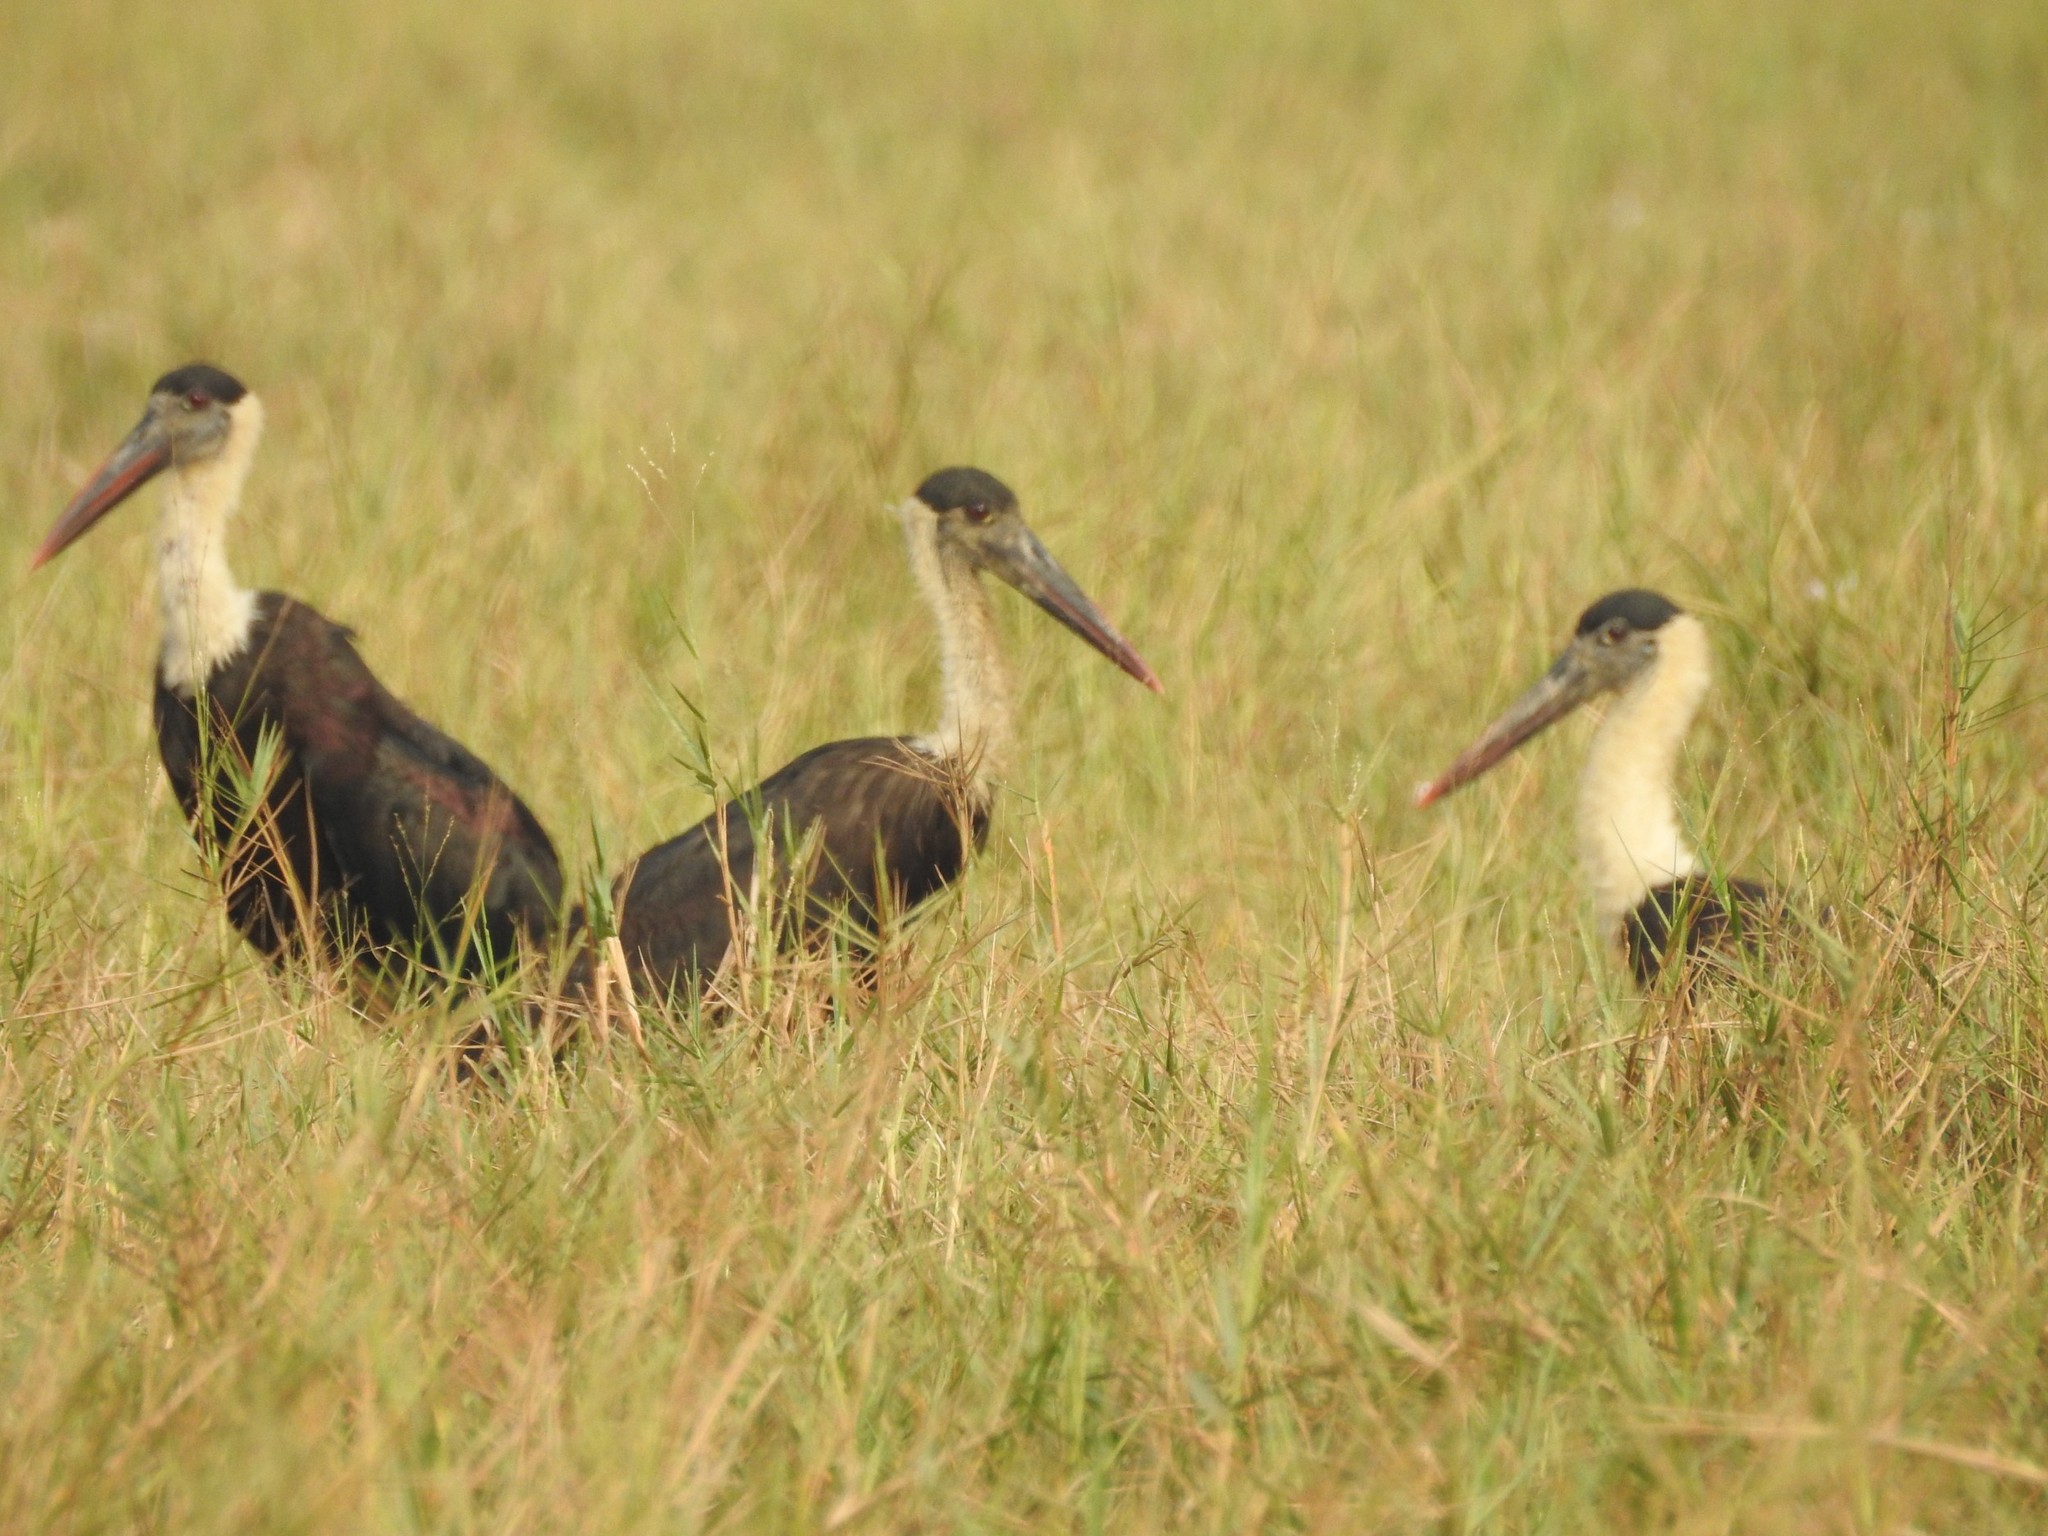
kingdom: Animalia
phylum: Chordata
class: Aves
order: Ciconiiformes
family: Ciconiidae
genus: Ciconia
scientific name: Ciconia episcopus
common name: Woolly-necked stork
